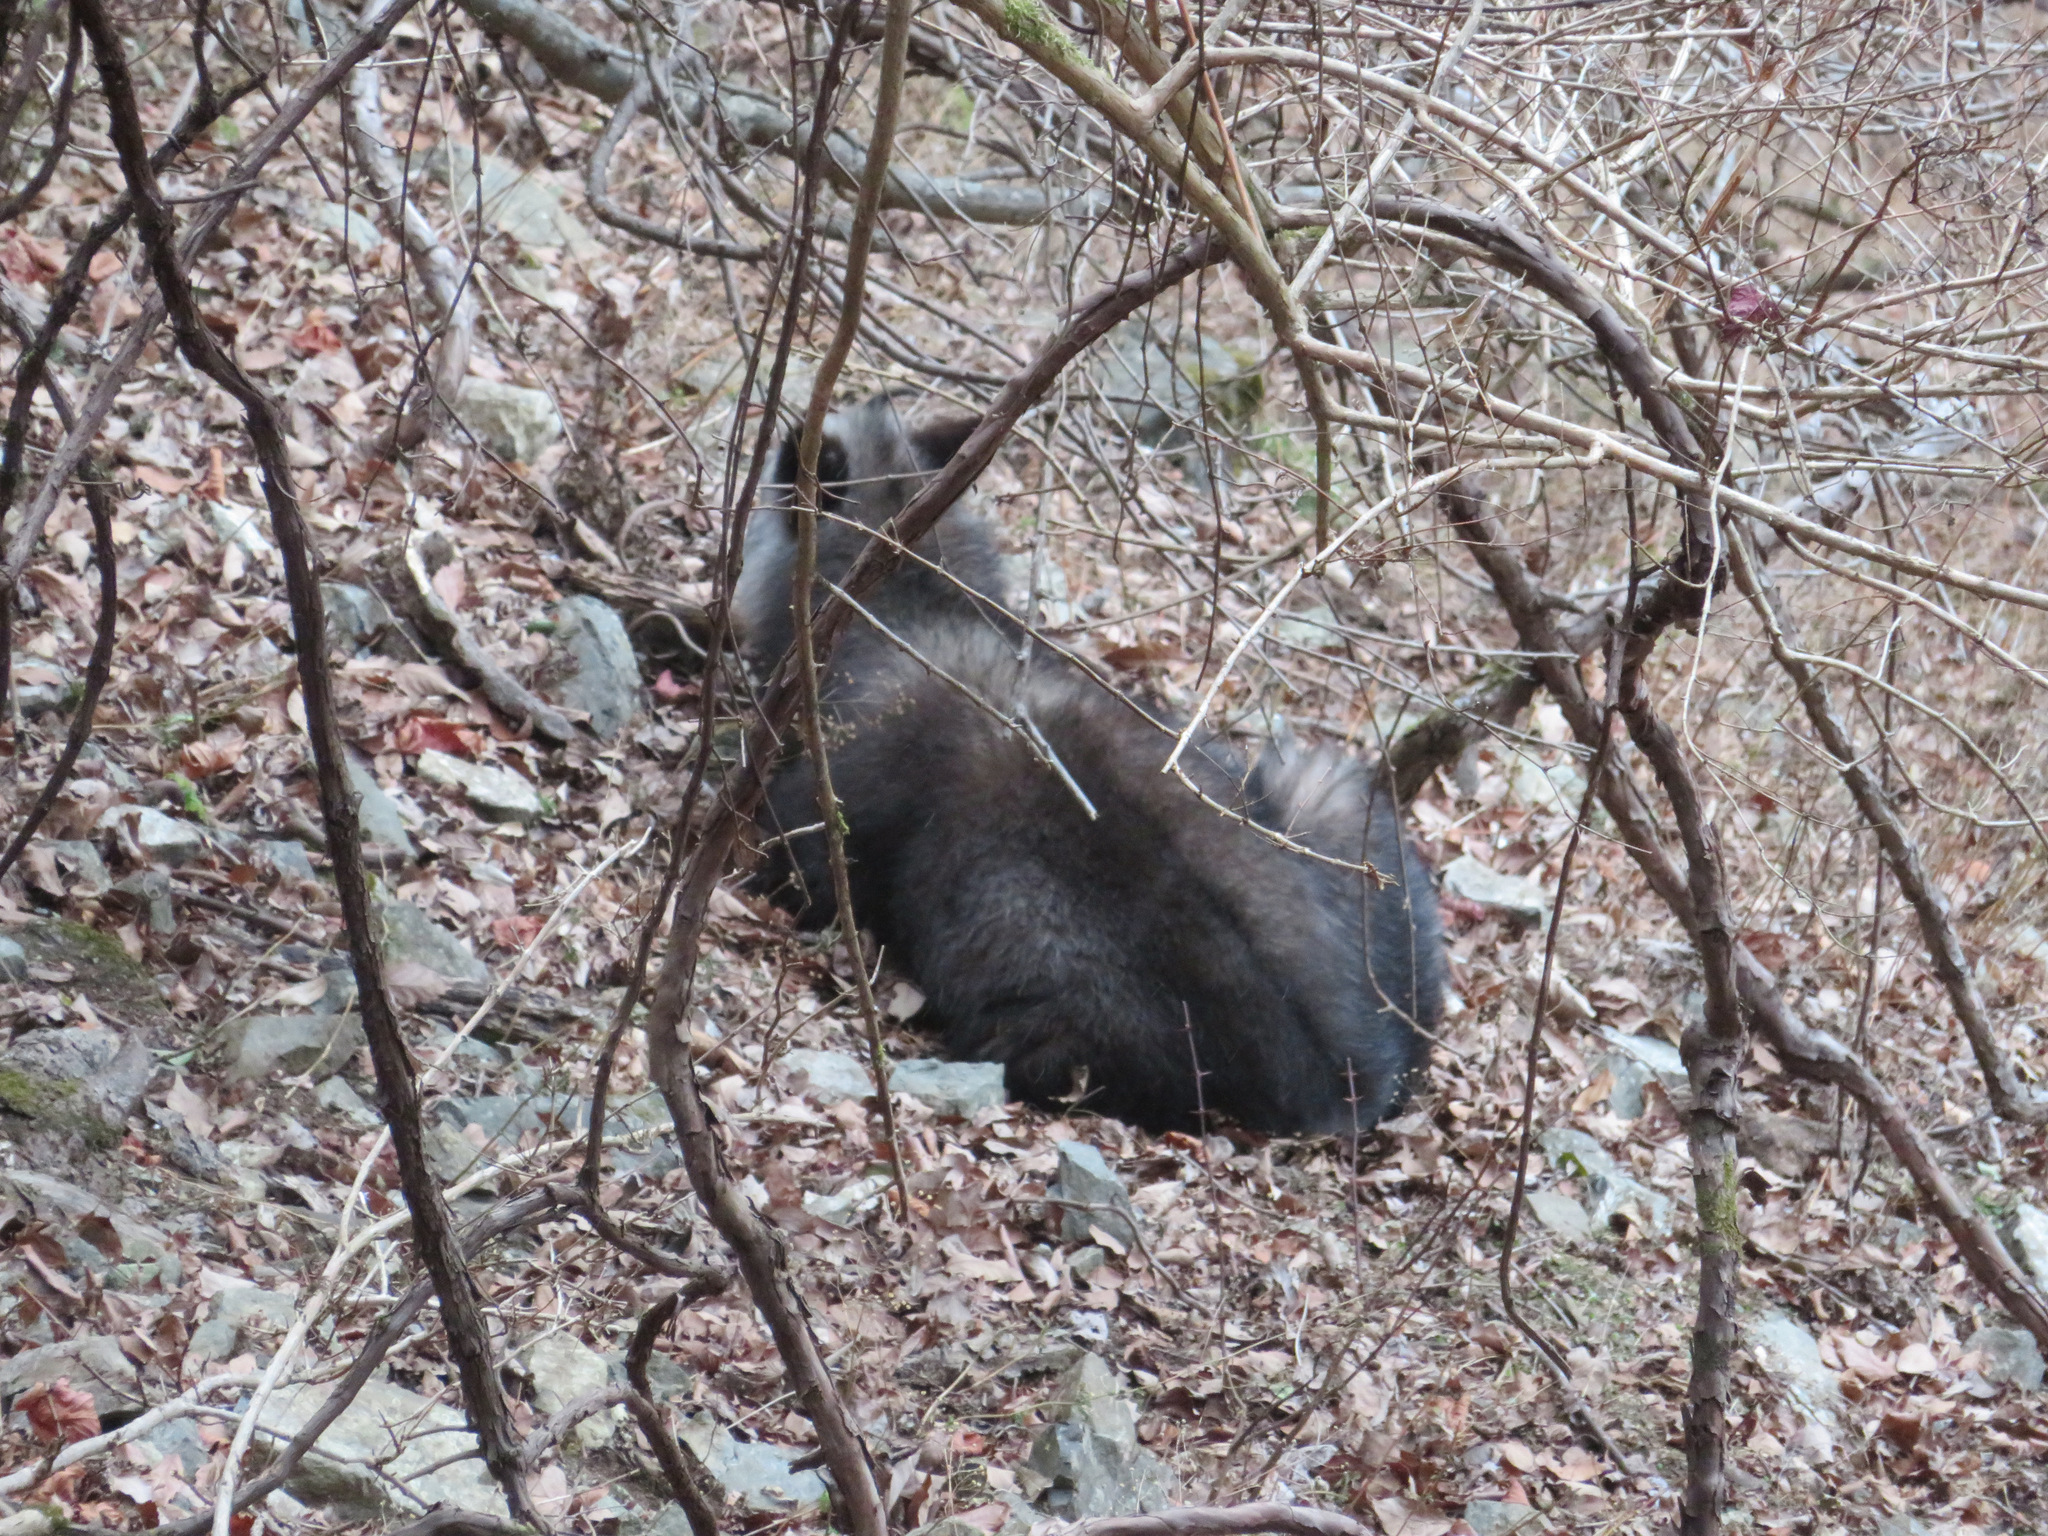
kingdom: Animalia
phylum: Chordata
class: Mammalia
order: Artiodactyla
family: Bovidae
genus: Capricornis
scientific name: Capricornis crispus
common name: Japanese serow
